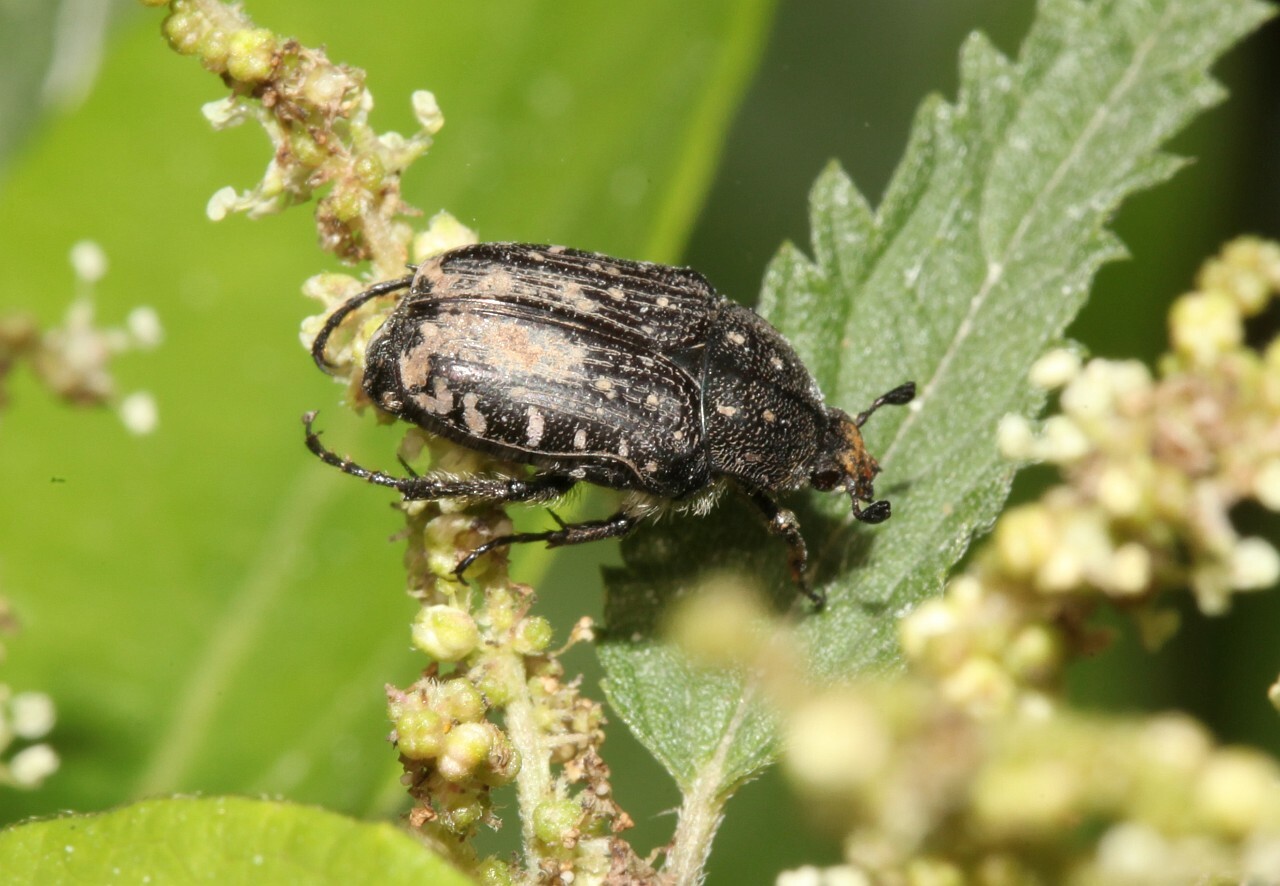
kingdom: Animalia
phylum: Arthropoda
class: Insecta
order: Coleoptera
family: Scarabaeidae
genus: Oxythyrea
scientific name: Oxythyrea funesta
